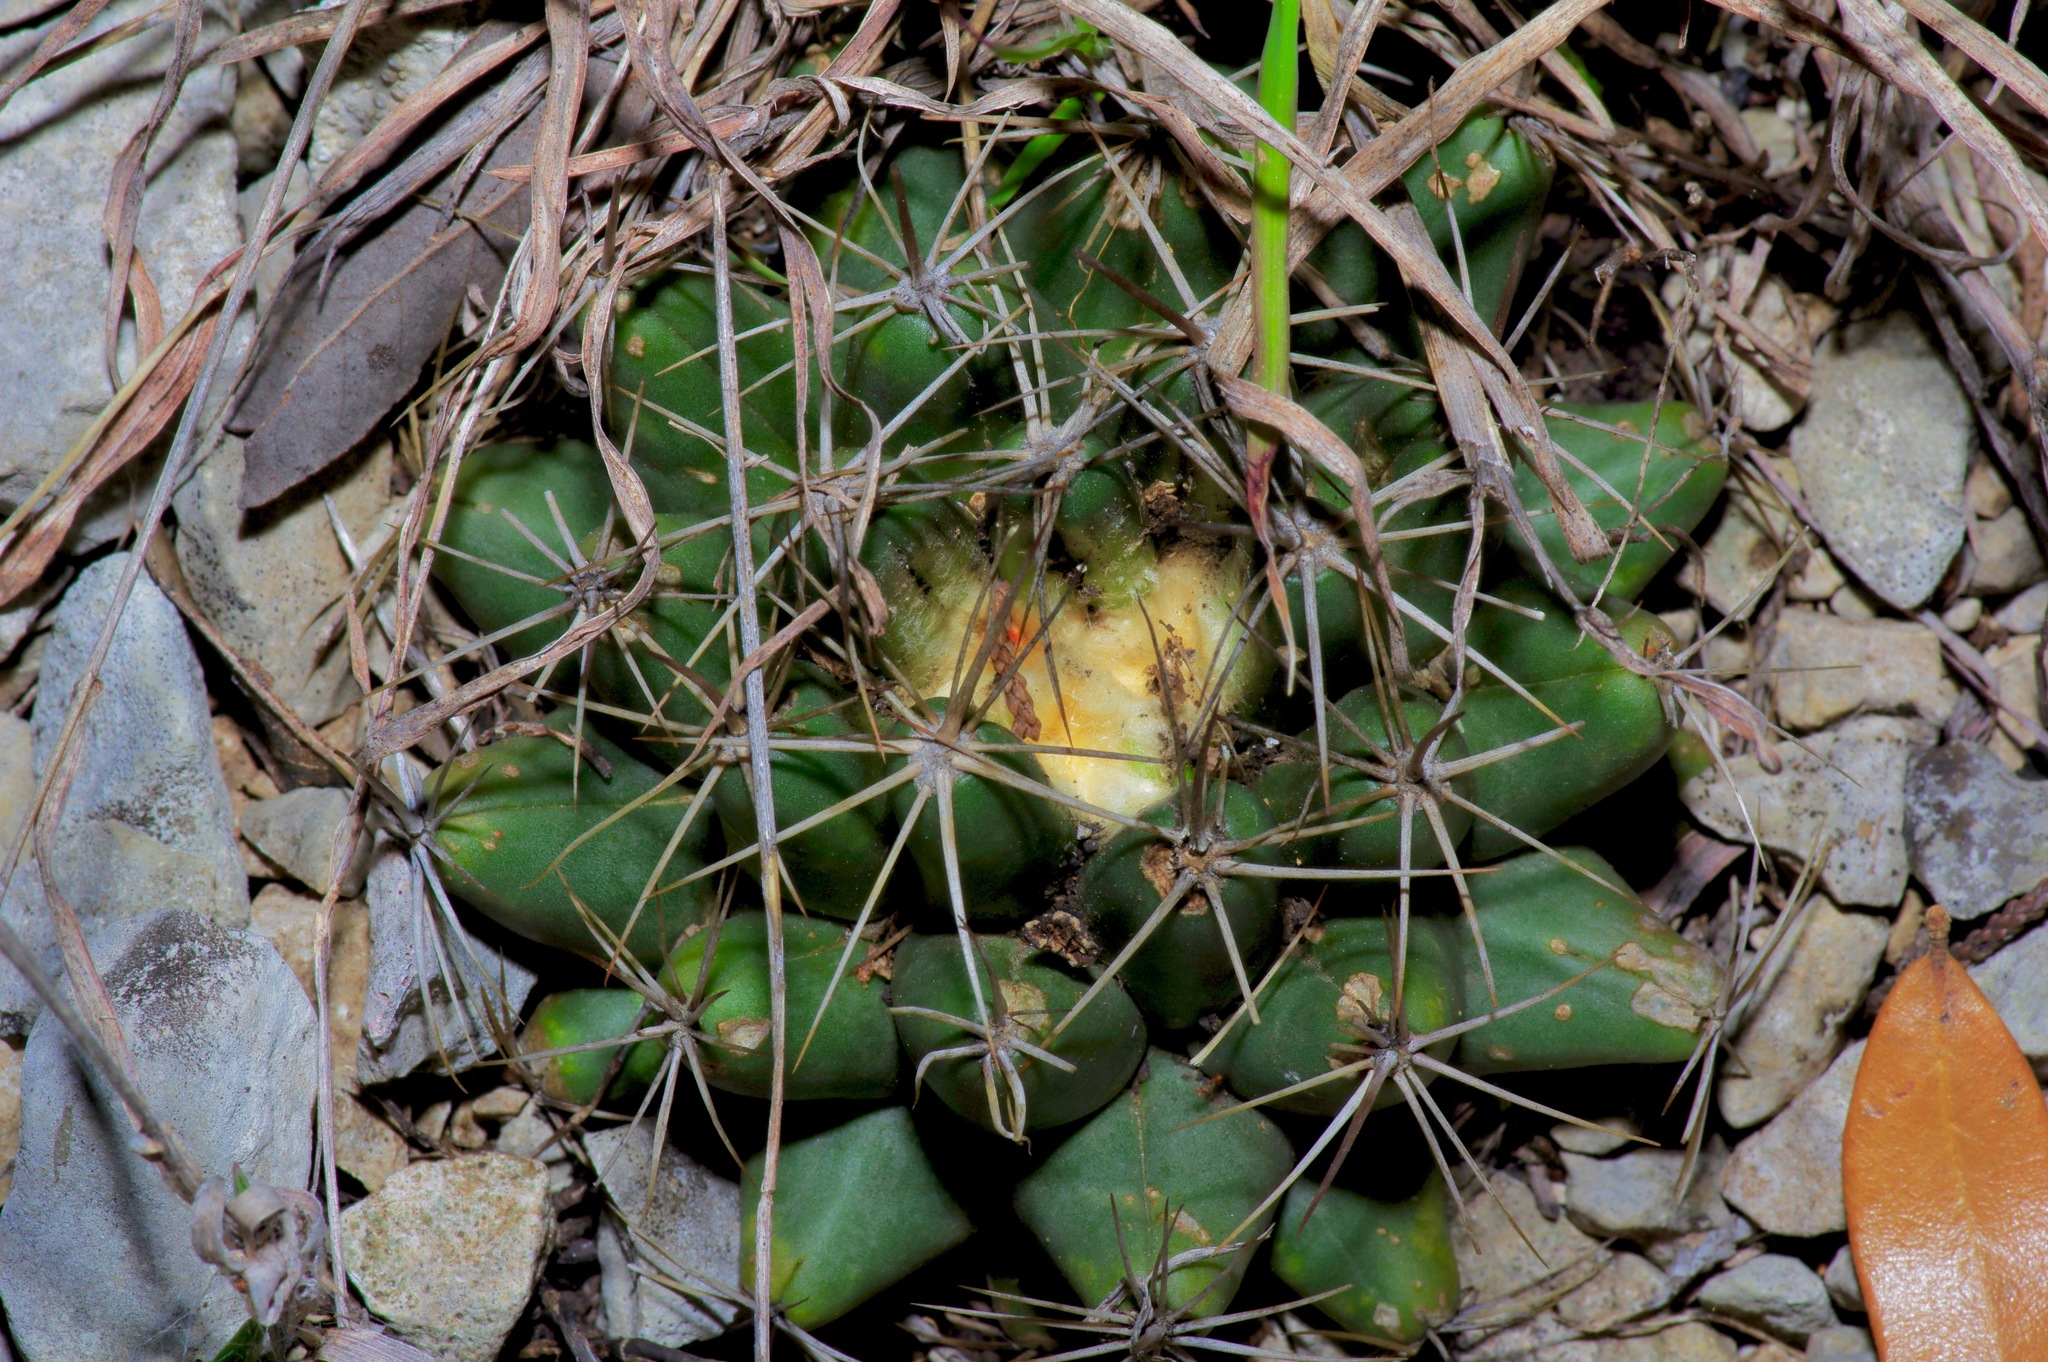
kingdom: Plantae
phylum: Tracheophyta
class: Magnoliopsida
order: Caryophyllales
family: Cactaceae
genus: Coryphantha
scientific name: Coryphantha sulcata
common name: Finger cactus
